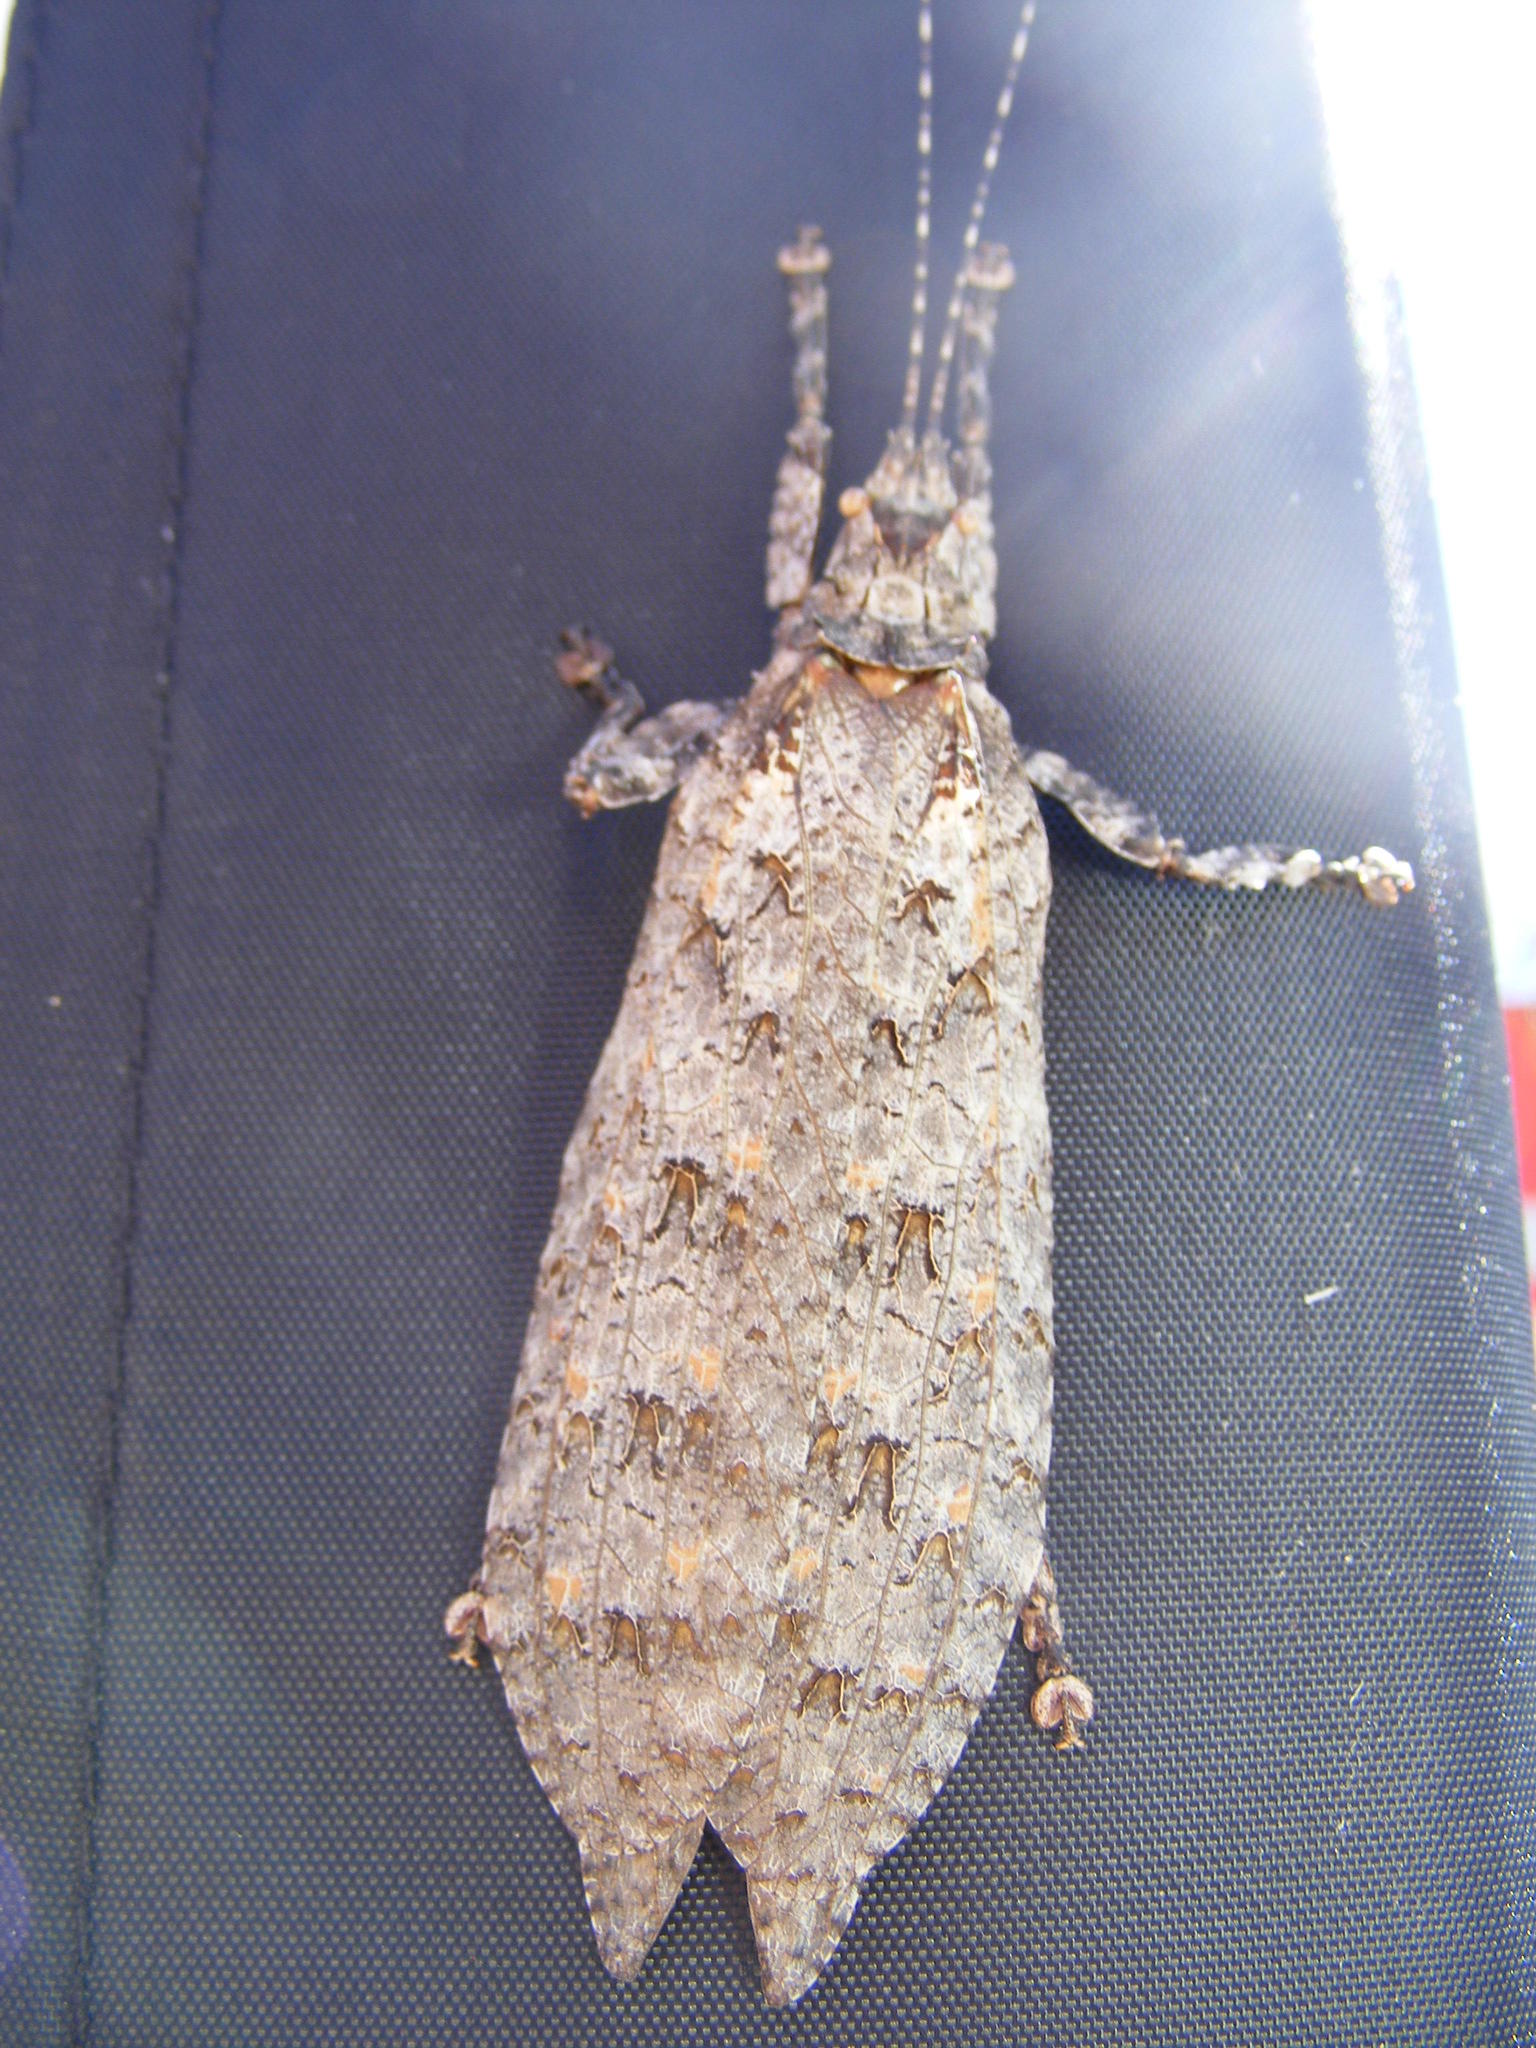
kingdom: Animalia
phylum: Arthropoda
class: Insecta
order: Orthoptera
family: Tettigoniidae
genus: Cymatomera
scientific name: Cymatomera denticollis
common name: Common bark katydid
